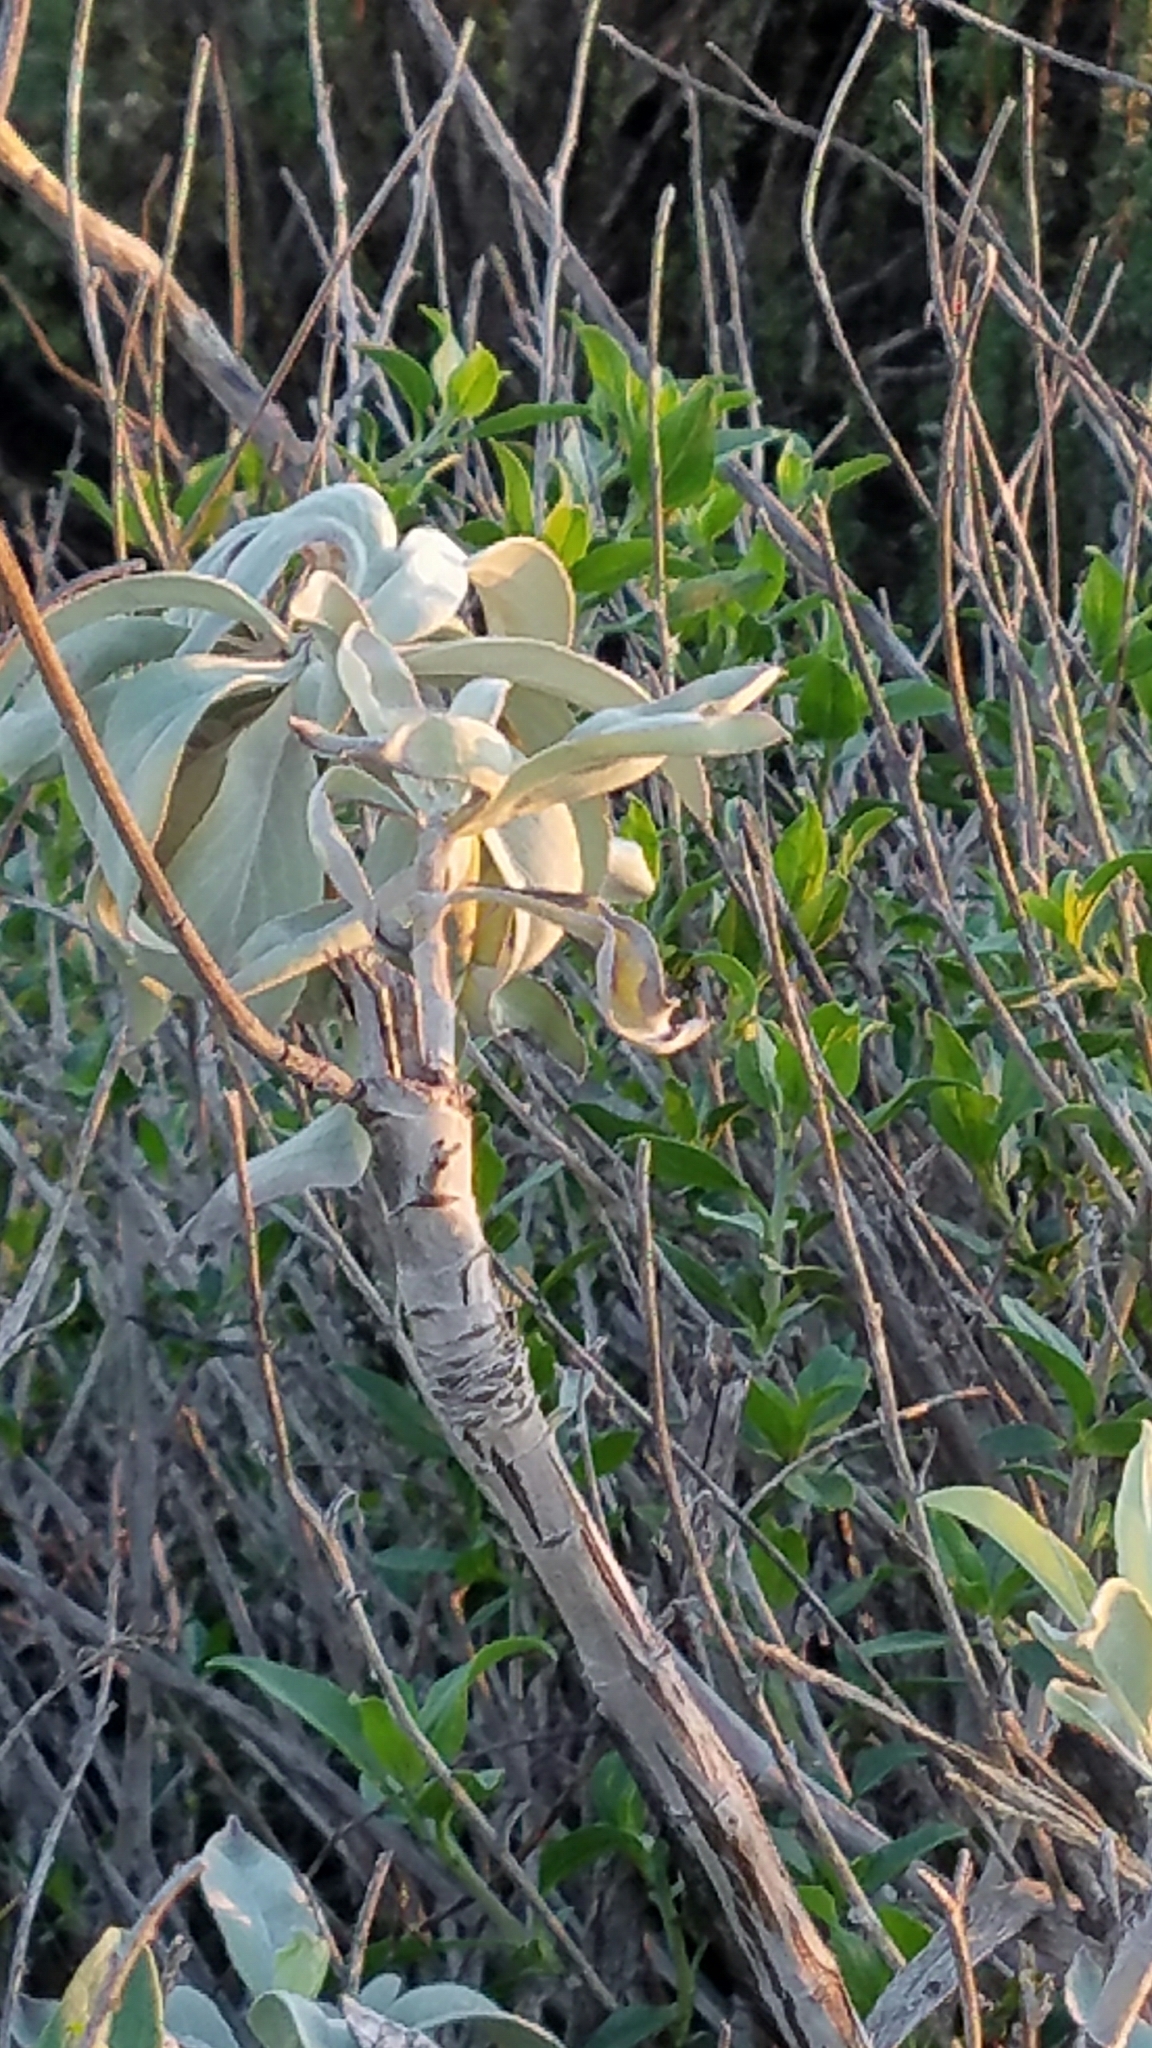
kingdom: Plantae
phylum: Tracheophyta
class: Magnoliopsida
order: Lamiales
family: Lamiaceae
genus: Salvia
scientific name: Salvia apiana
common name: White sage
